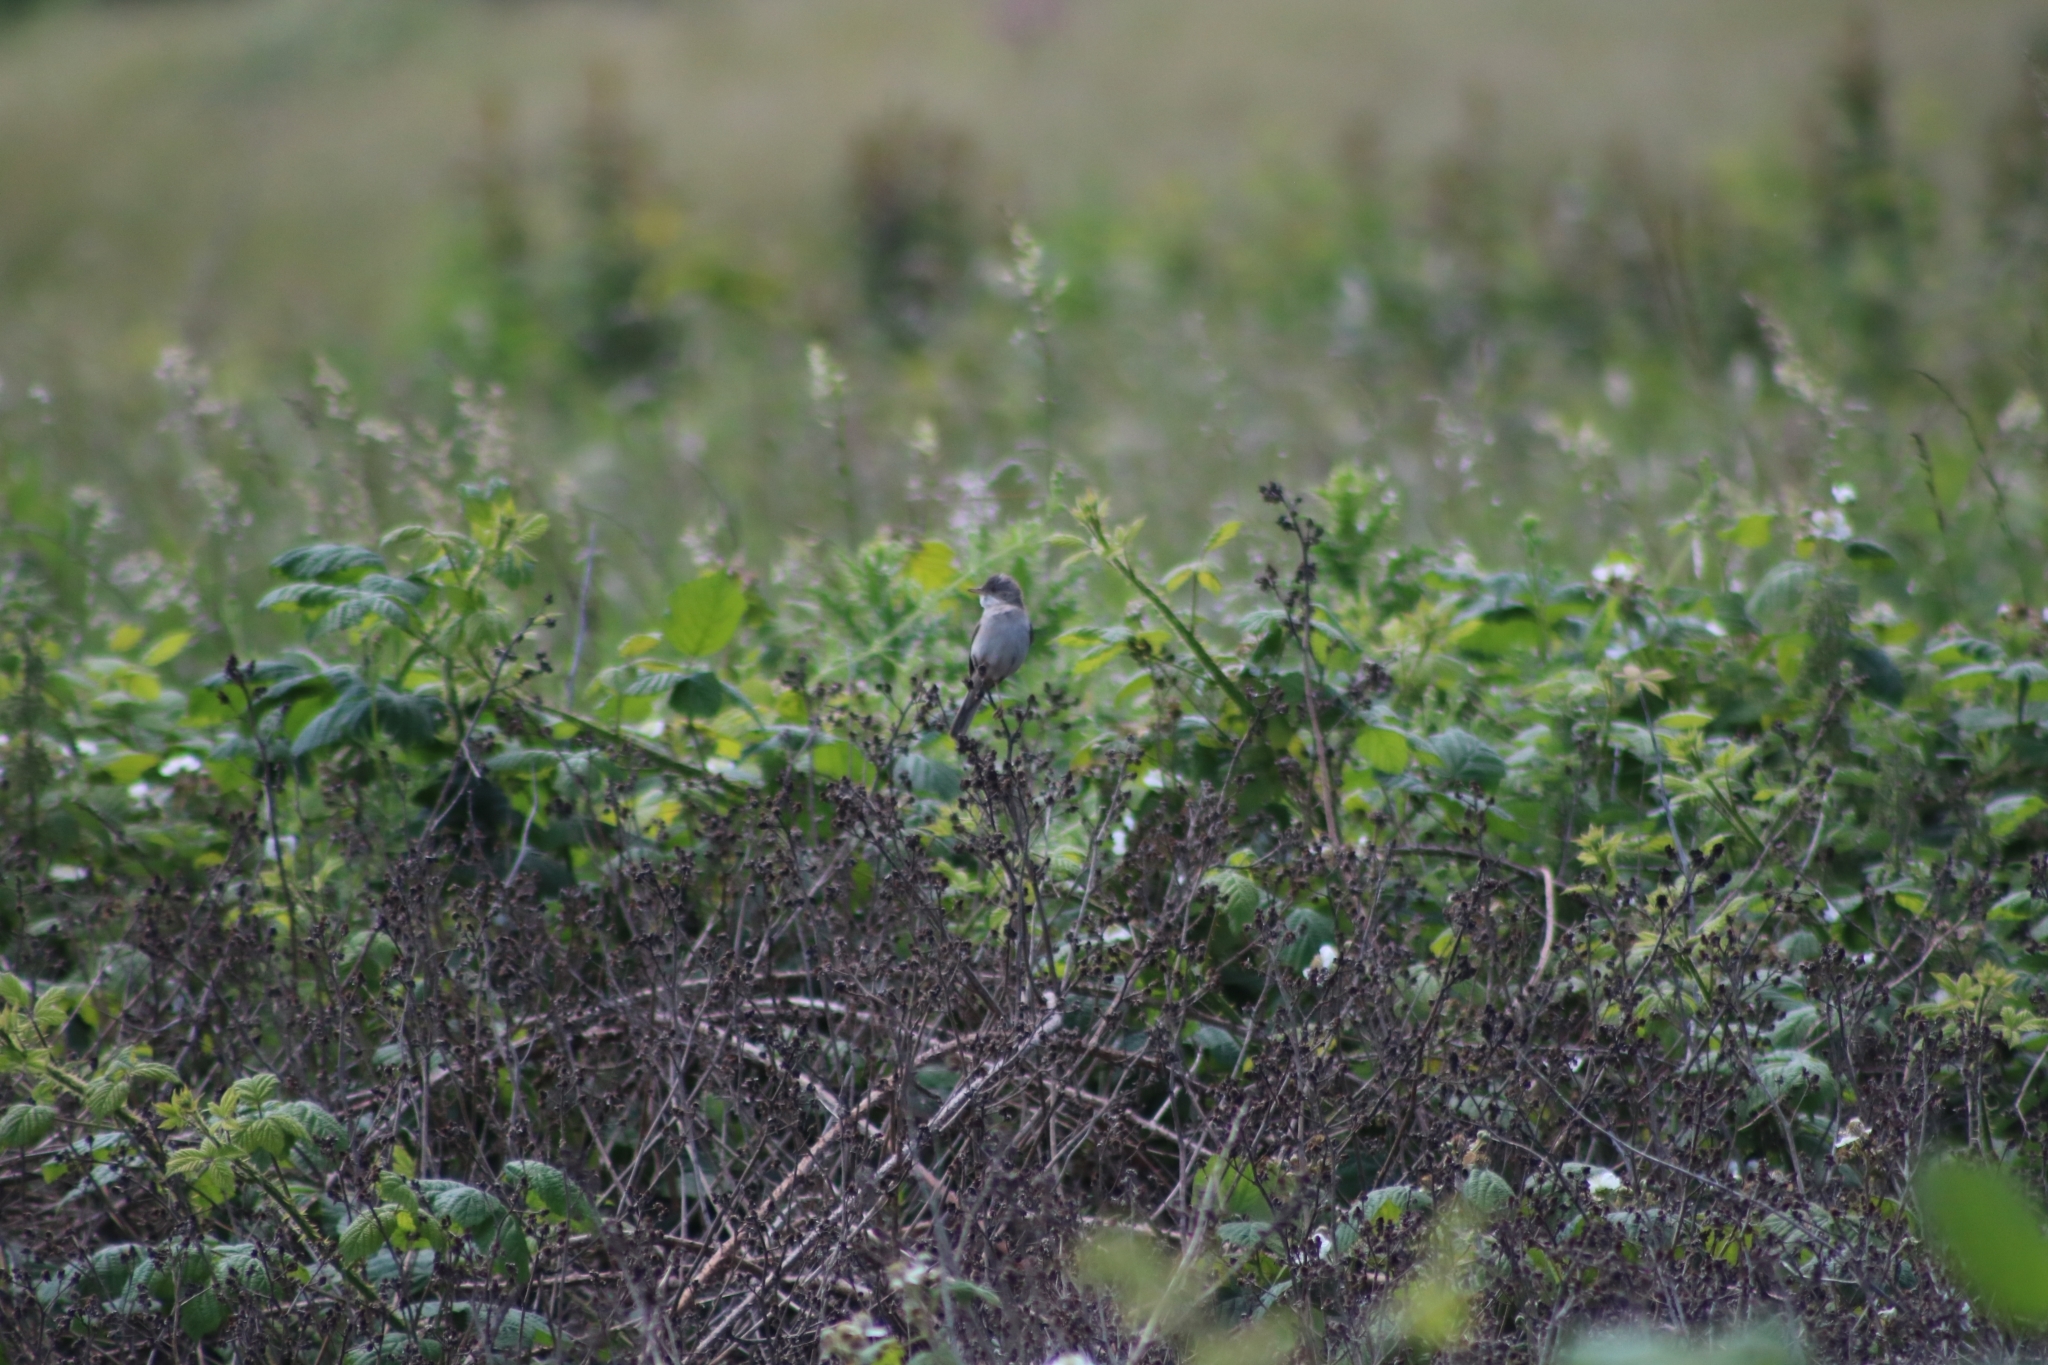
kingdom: Animalia
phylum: Chordata
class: Aves
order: Passeriformes
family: Sylviidae
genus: Sylvia
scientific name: Sylvia communis
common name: Common whitethroat
